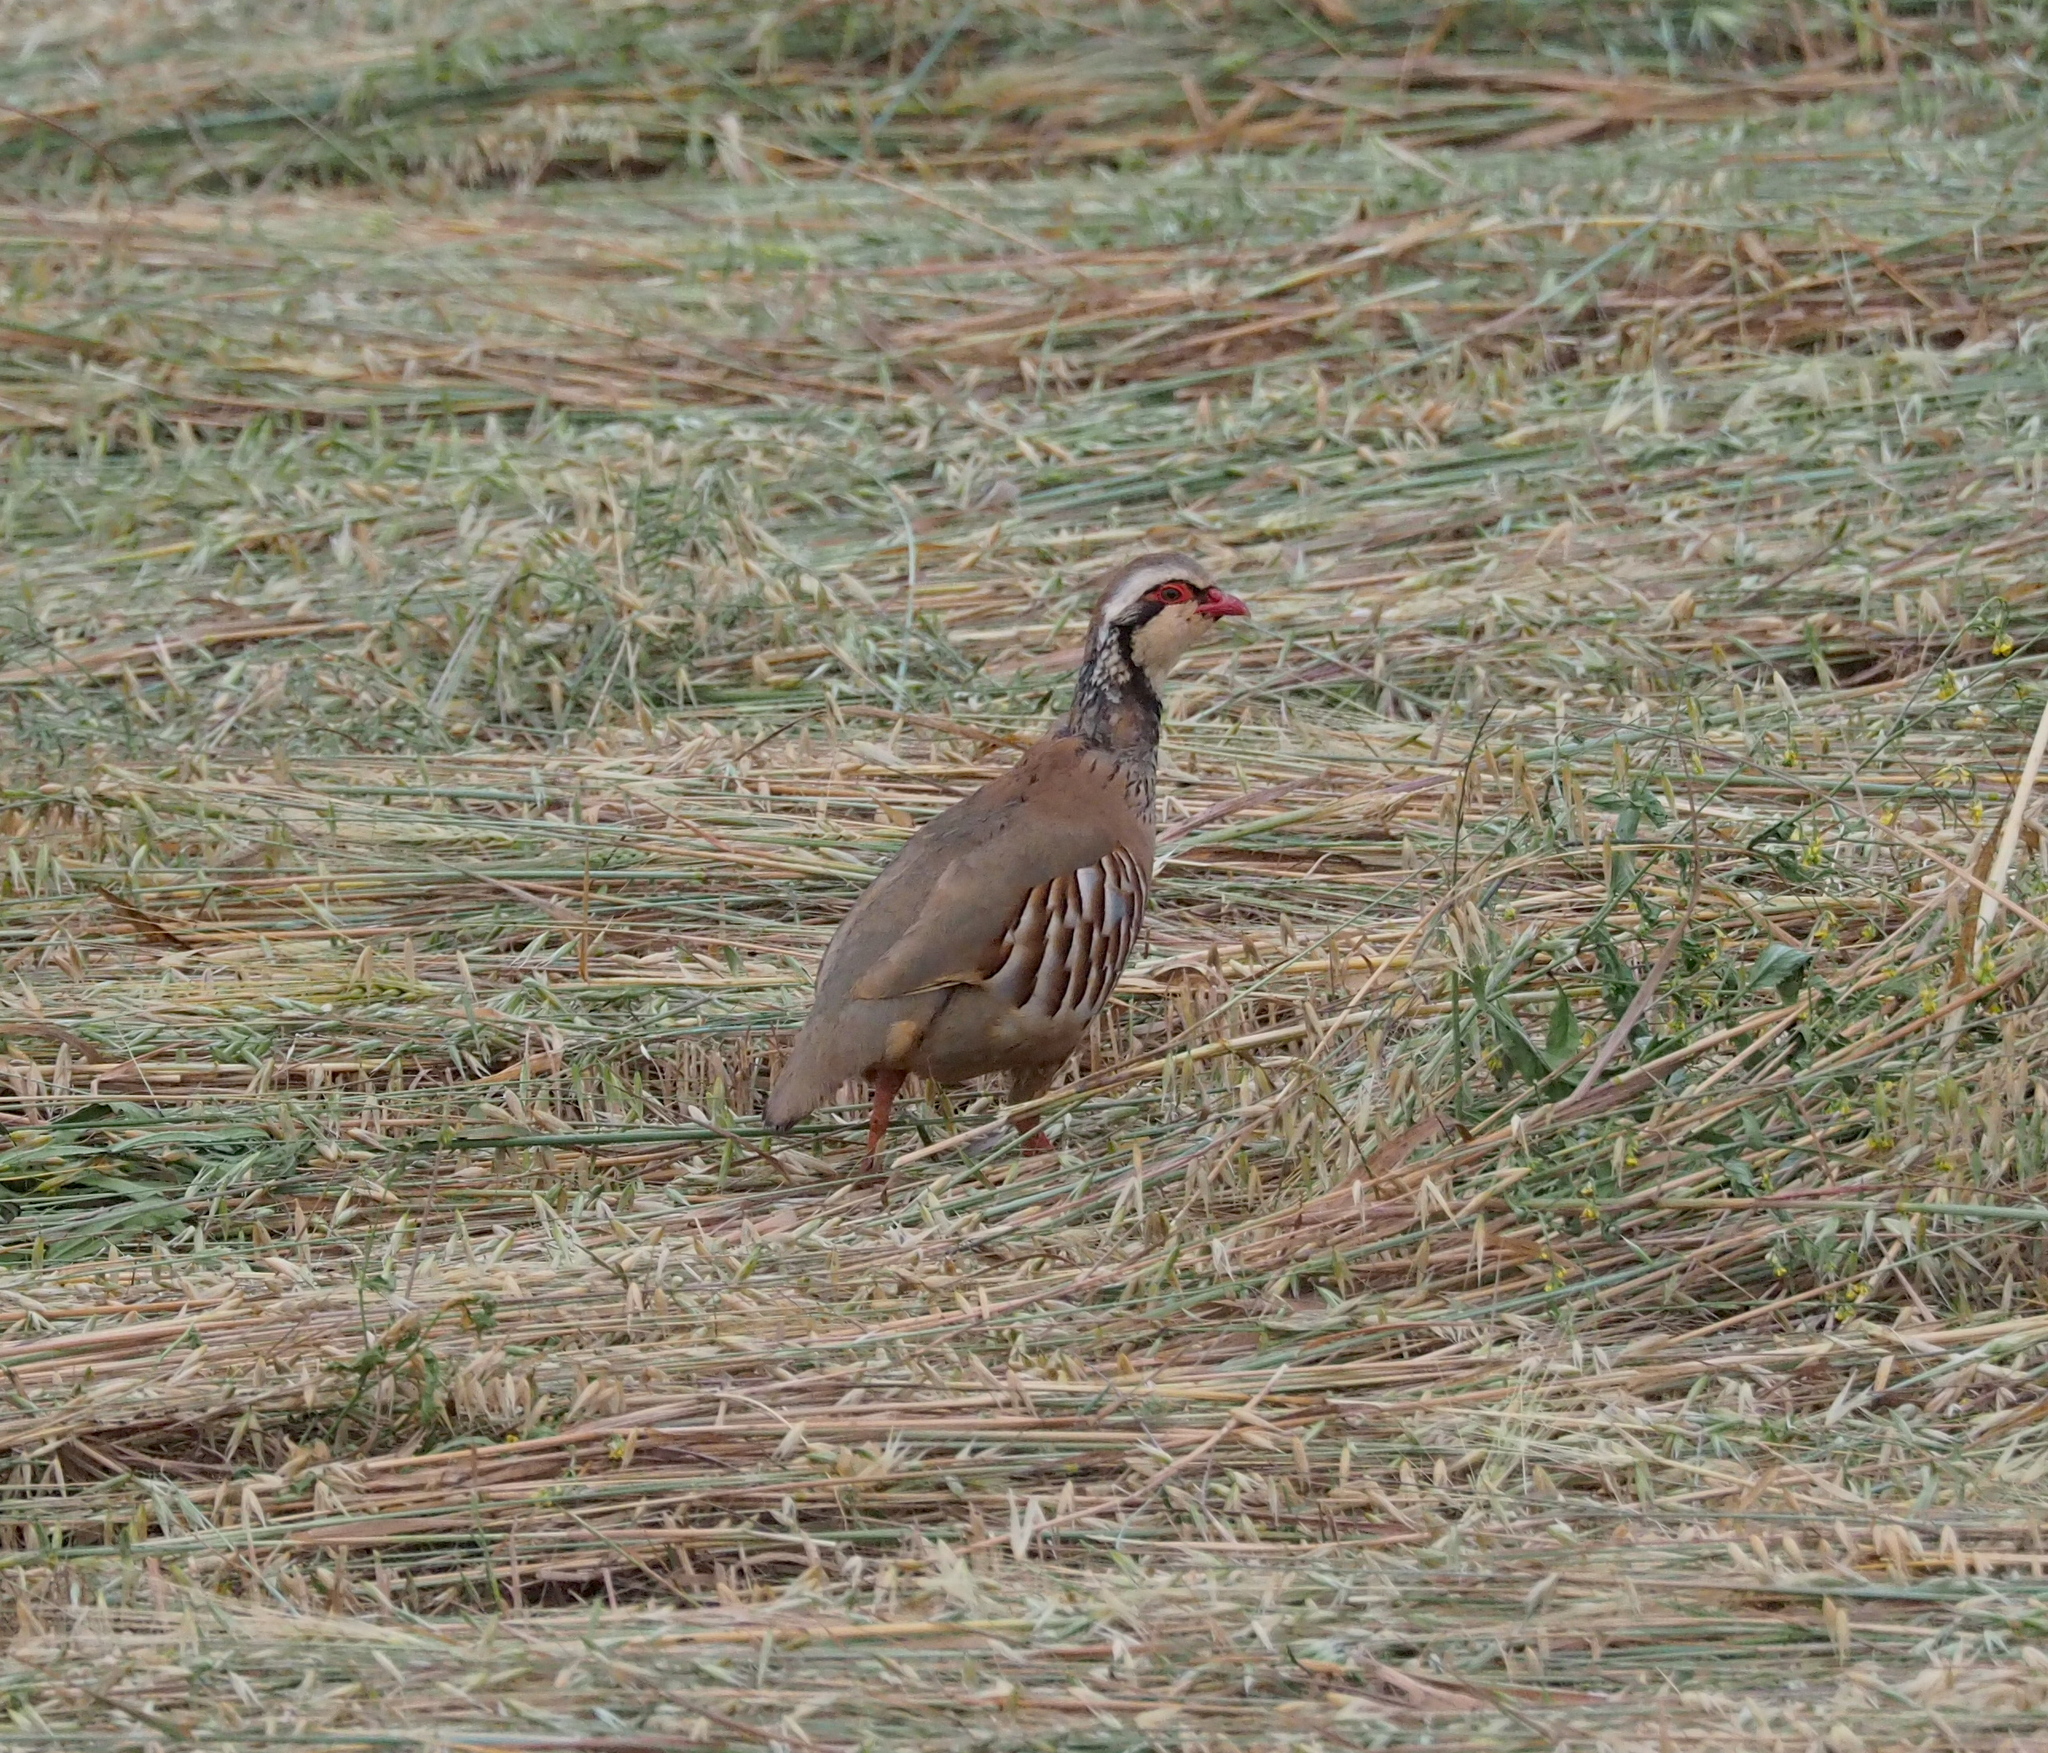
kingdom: Animalia
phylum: Chordata
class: Aves
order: Galliformes
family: Phasianidae
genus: Alectoris
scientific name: Alectoris rufa
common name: Red-legged partridge
